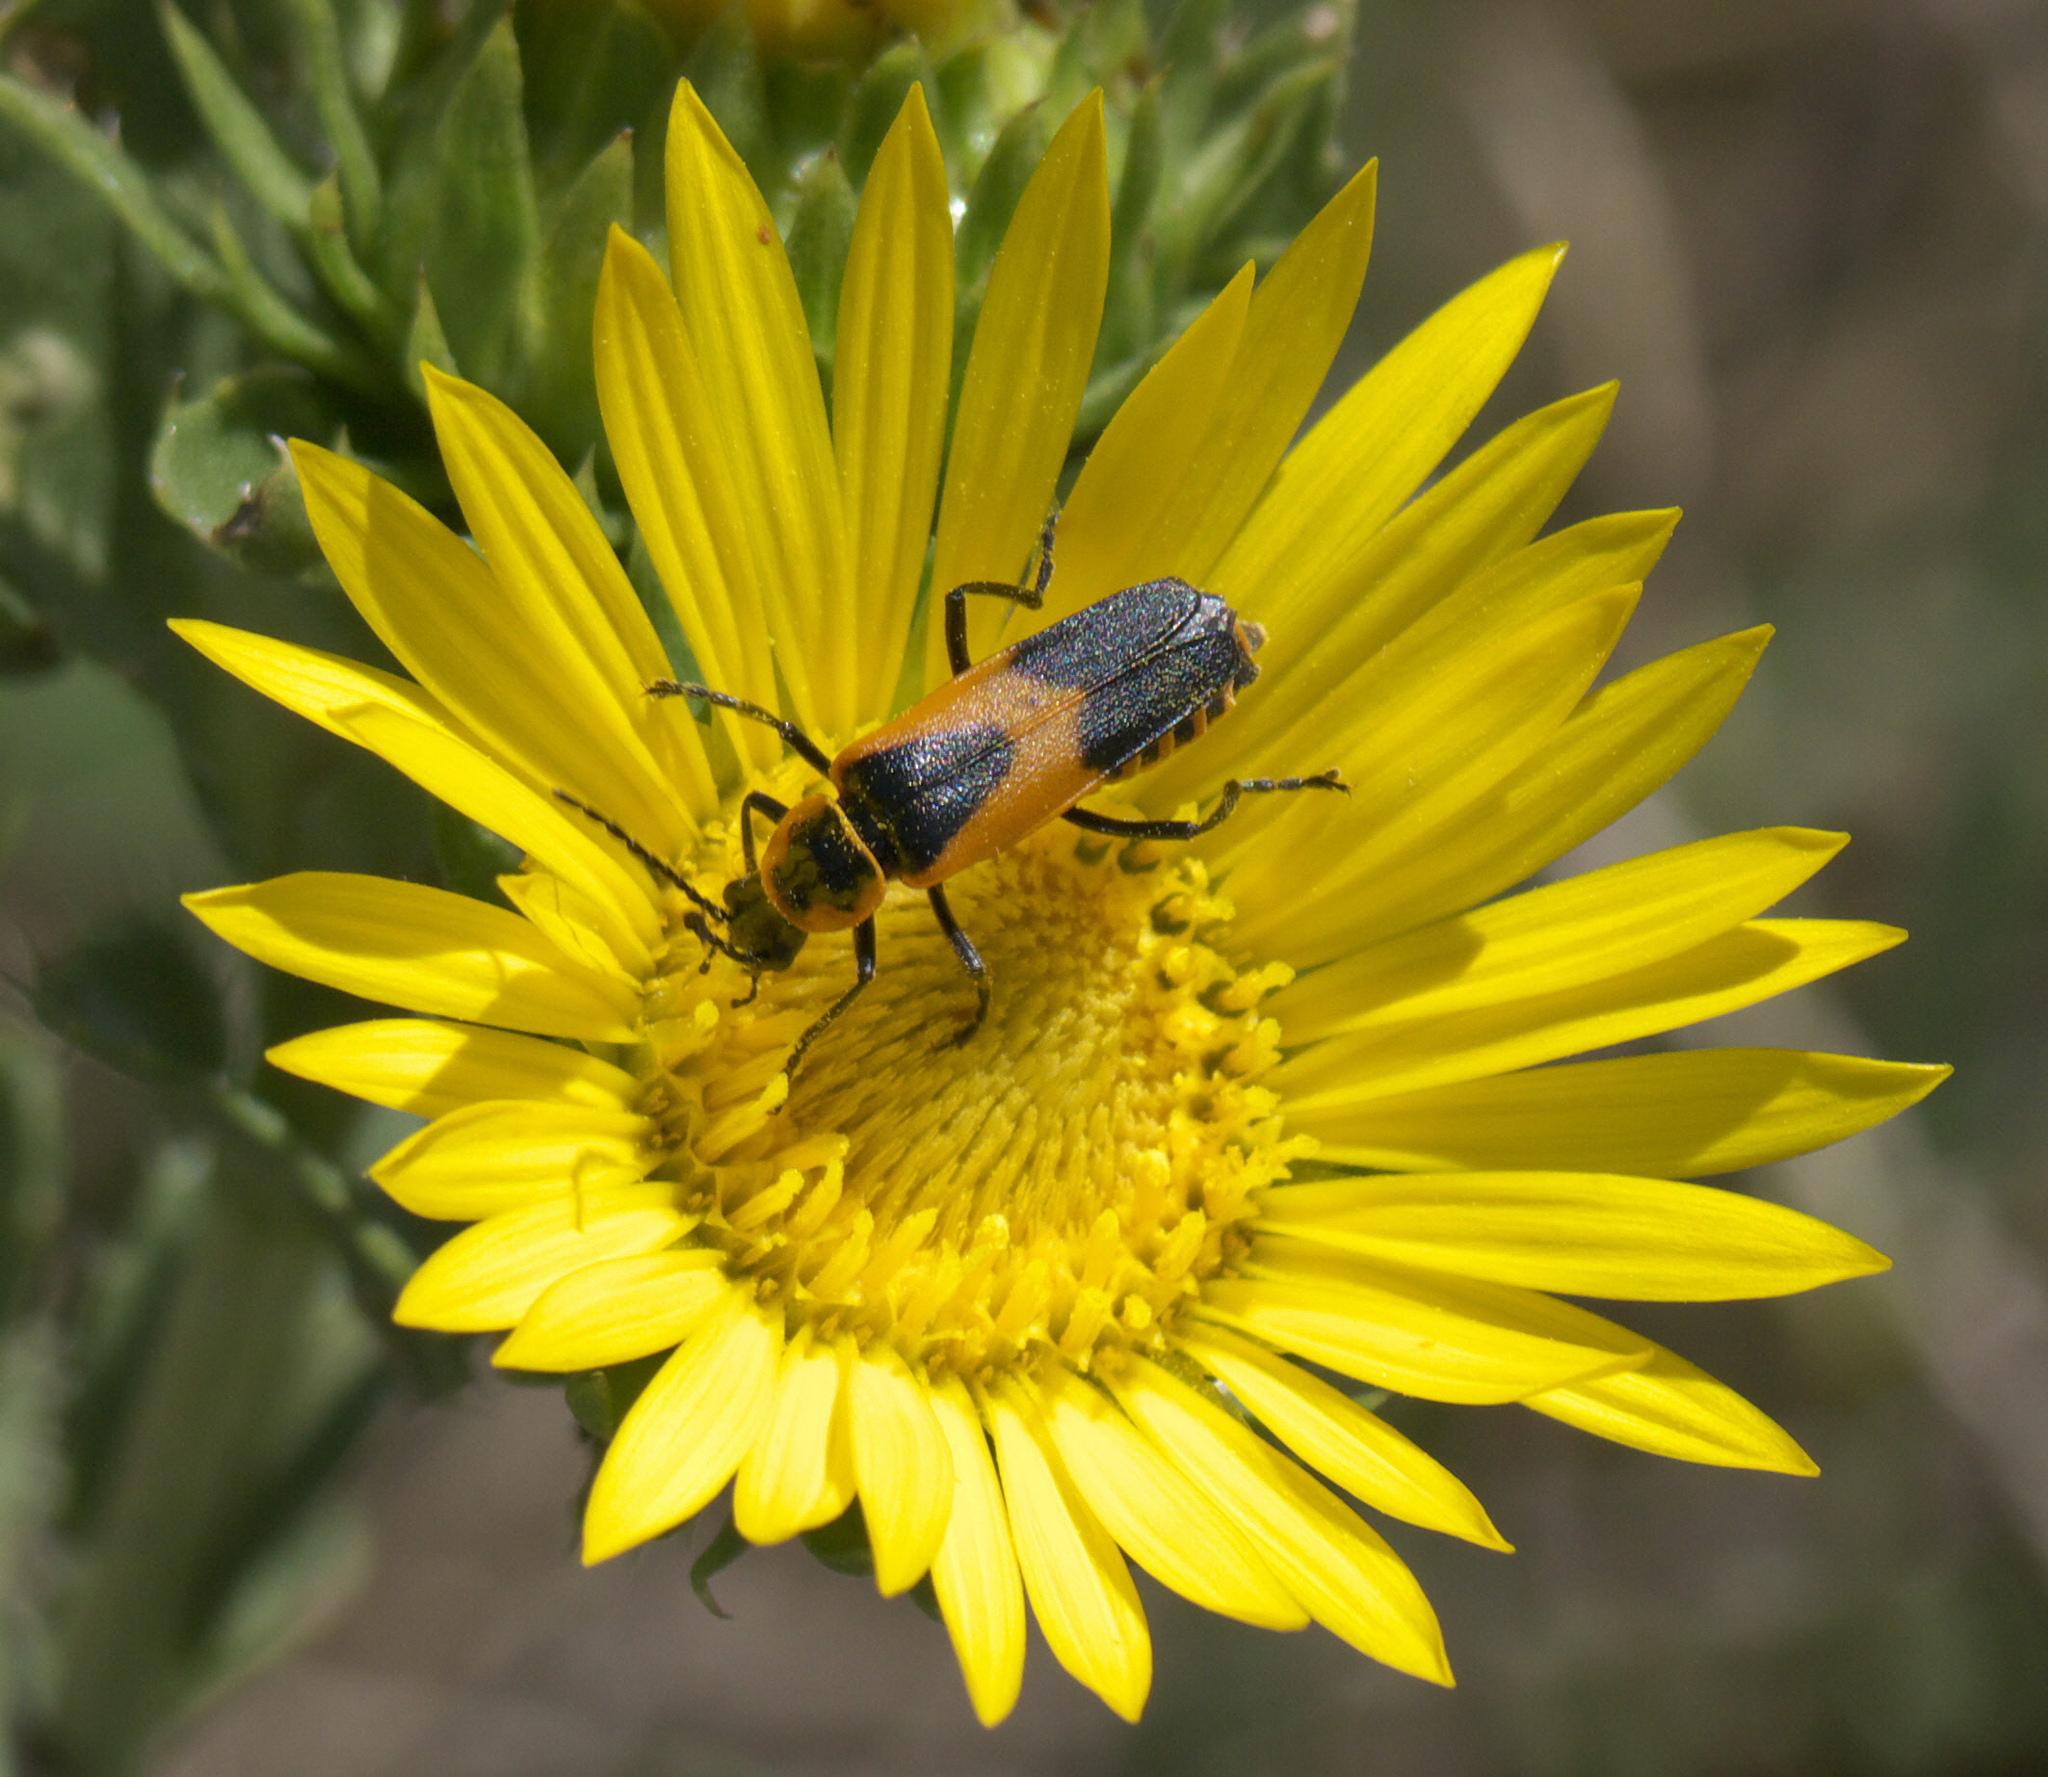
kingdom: Animalia
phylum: Arthropoda
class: Insecta
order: Coleoptera
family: Cantharidae
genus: Chauliognathus
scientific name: Chauliognathus basalis
